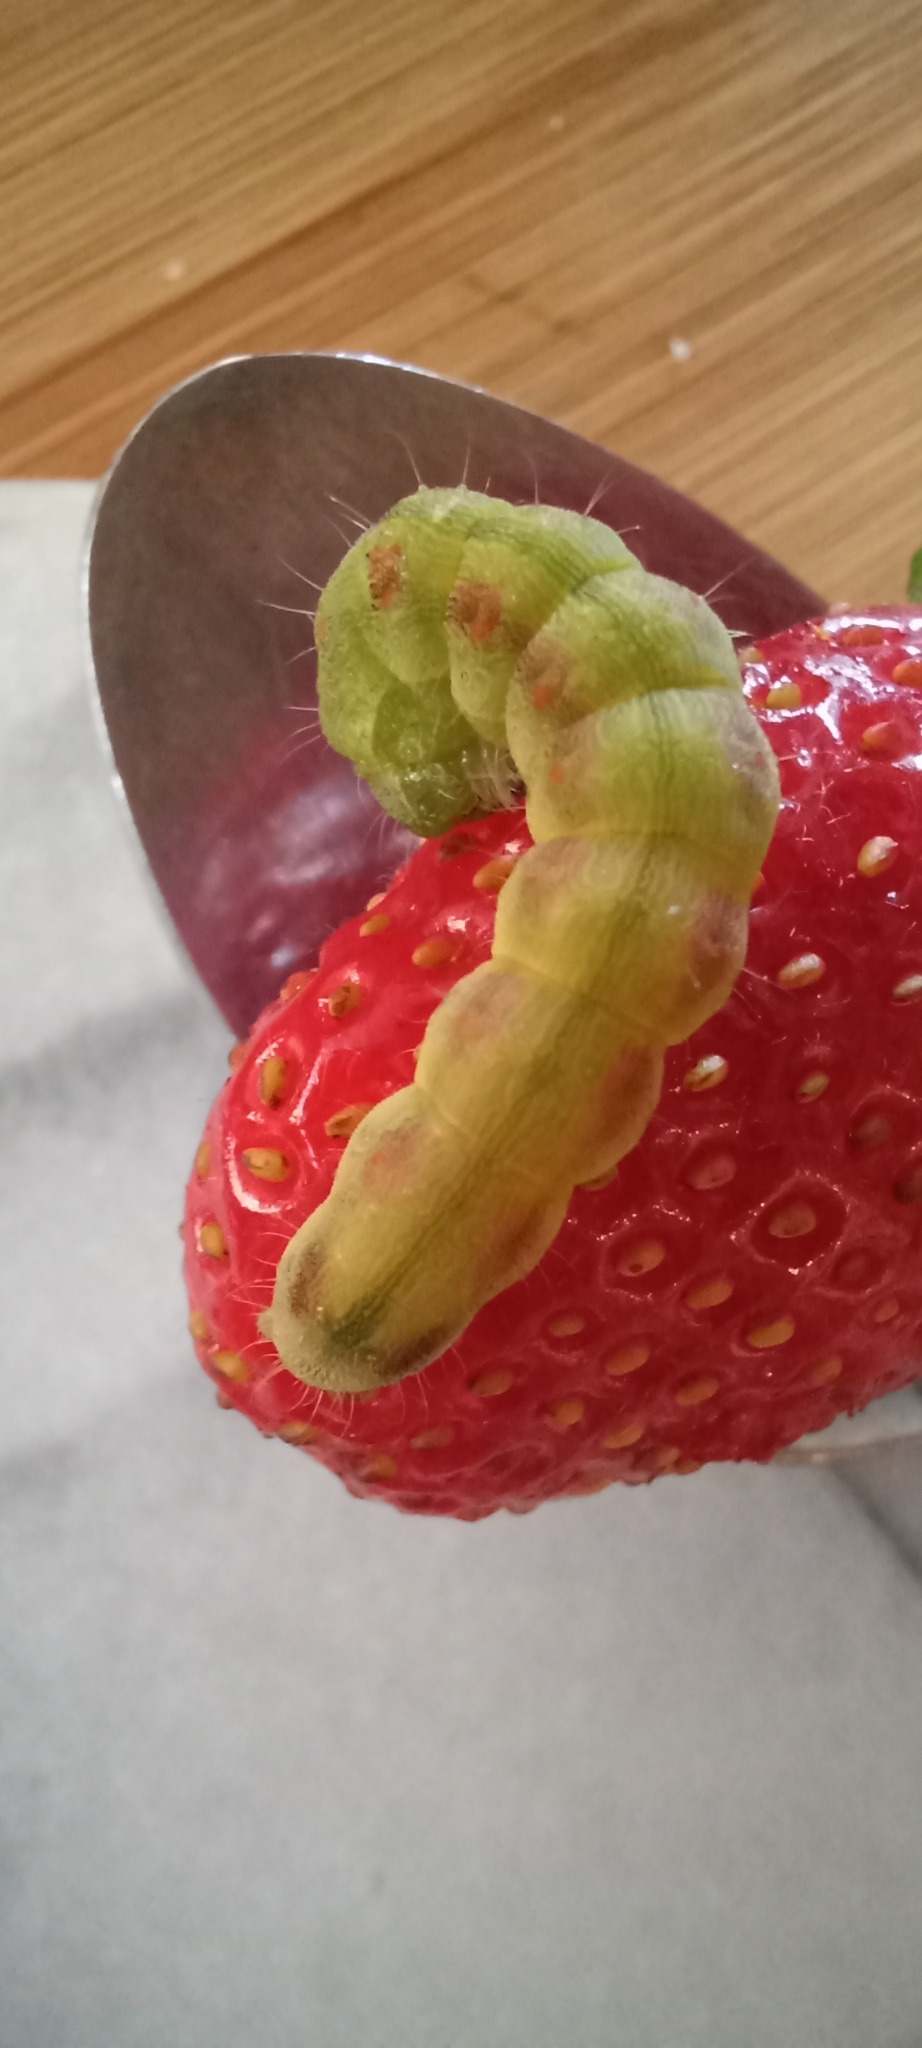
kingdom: Animalia
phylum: Arthropoda
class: Insecta
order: Lepidoptera
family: Noctuidae
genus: Helicoverpa
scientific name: Helicoverpa armigera
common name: Cotton bollworm
